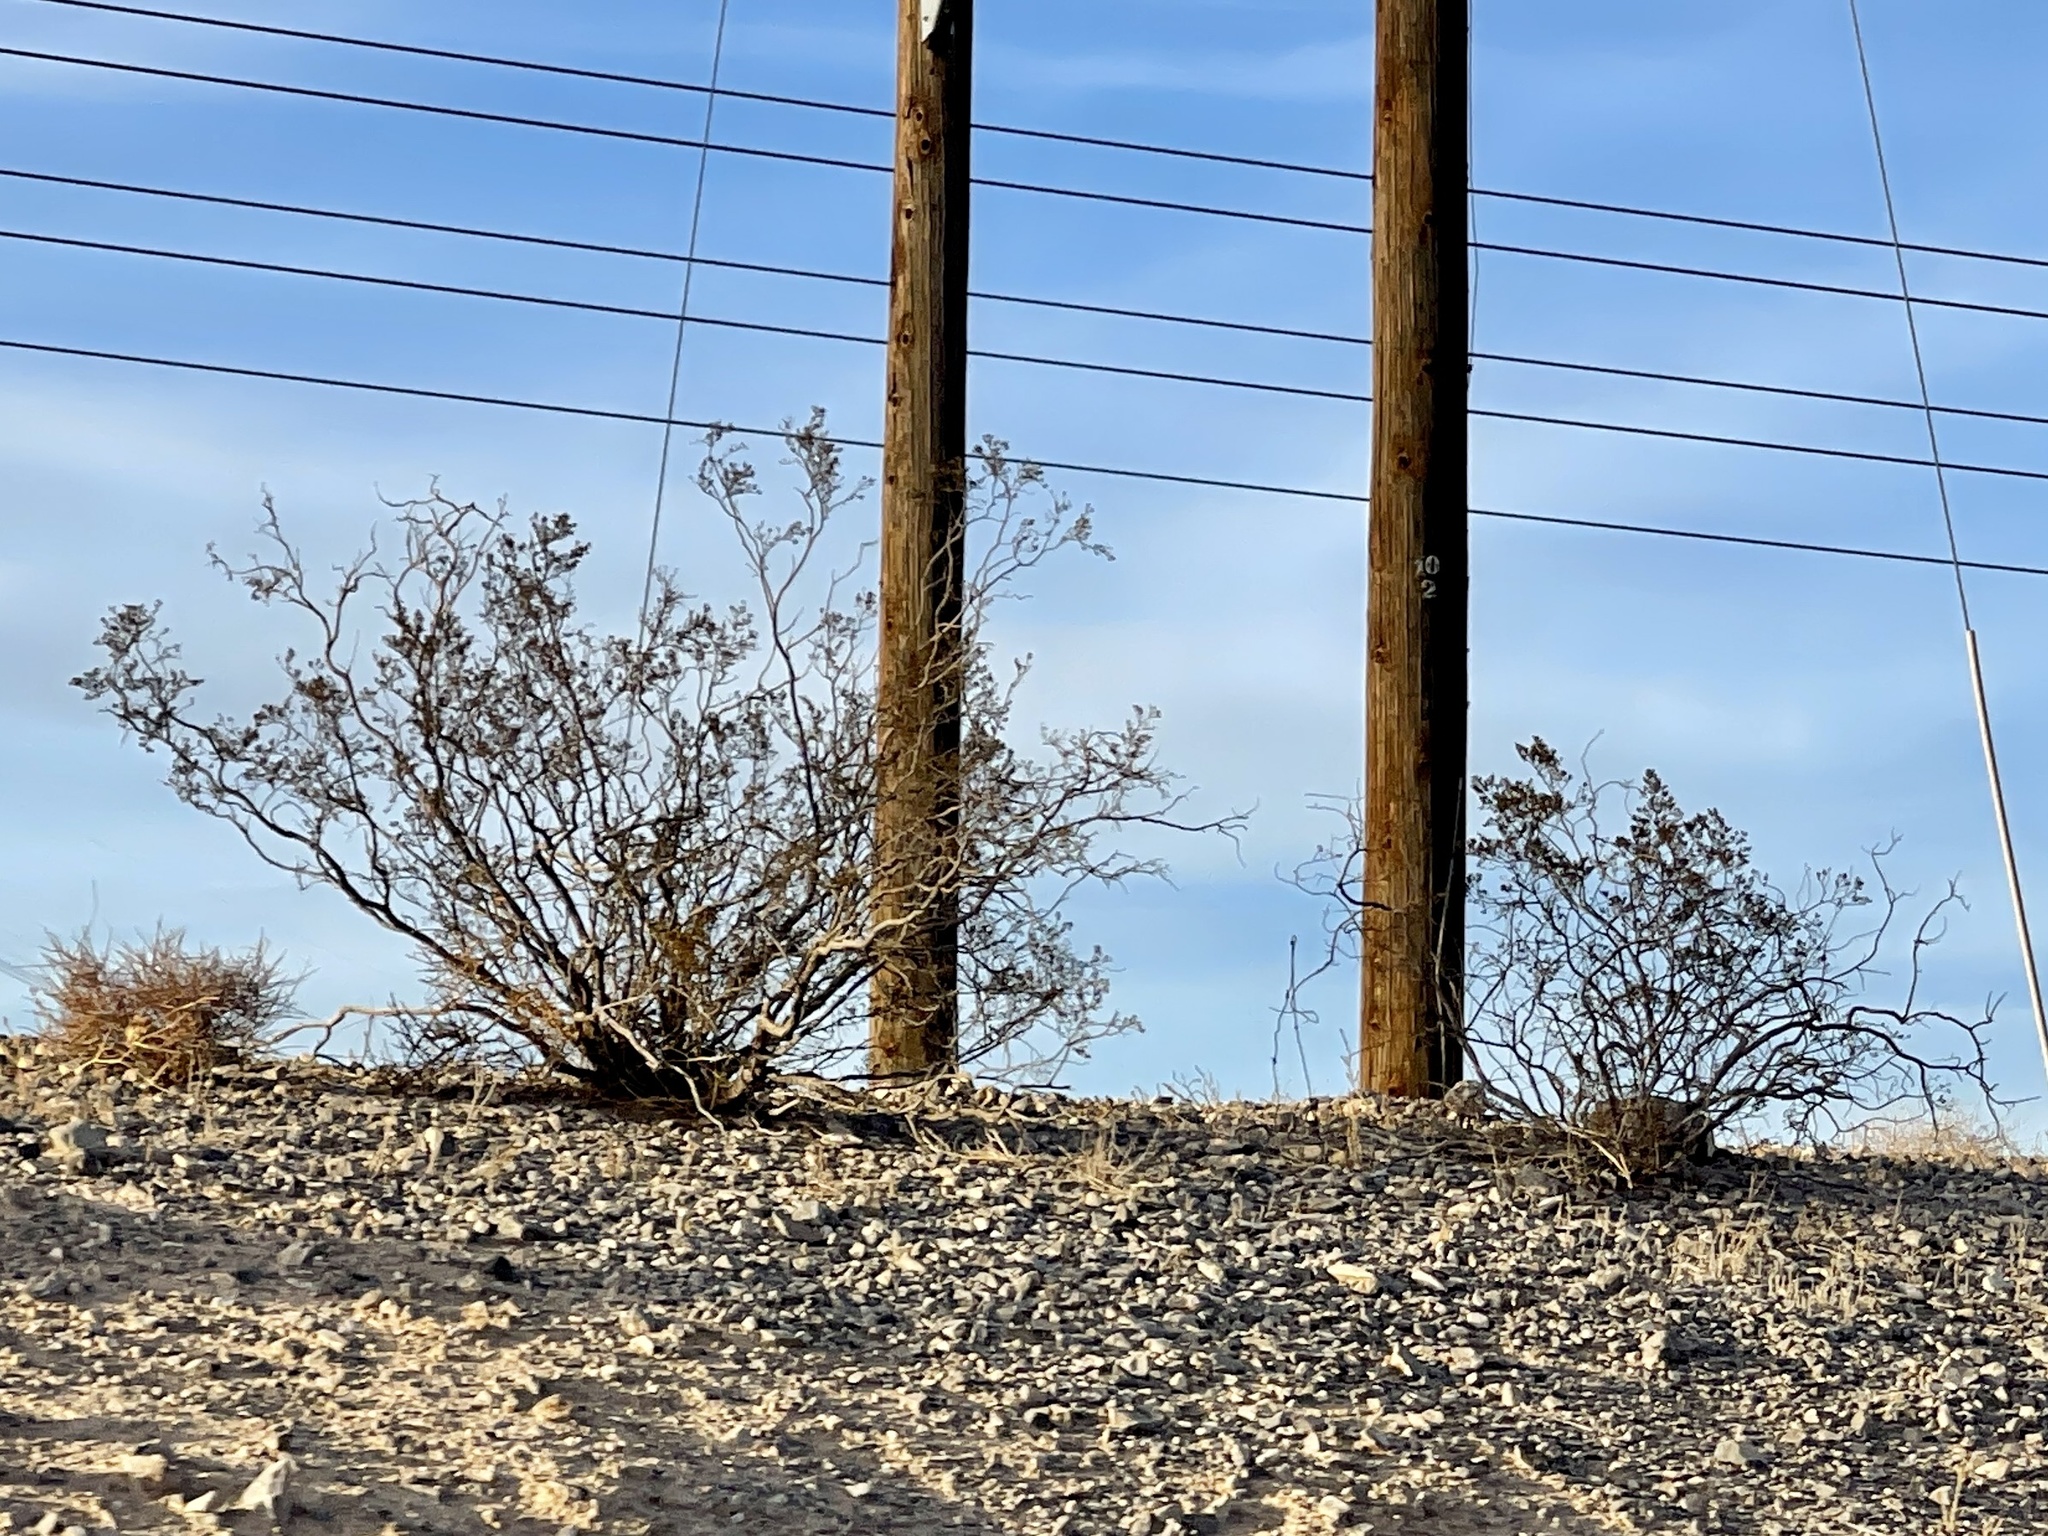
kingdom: Plantae
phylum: Tracheophyta
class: Magnoliopsida
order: Zygophyllales
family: Zygophyllaceae
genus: Larrea
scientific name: Larrea tridentata
